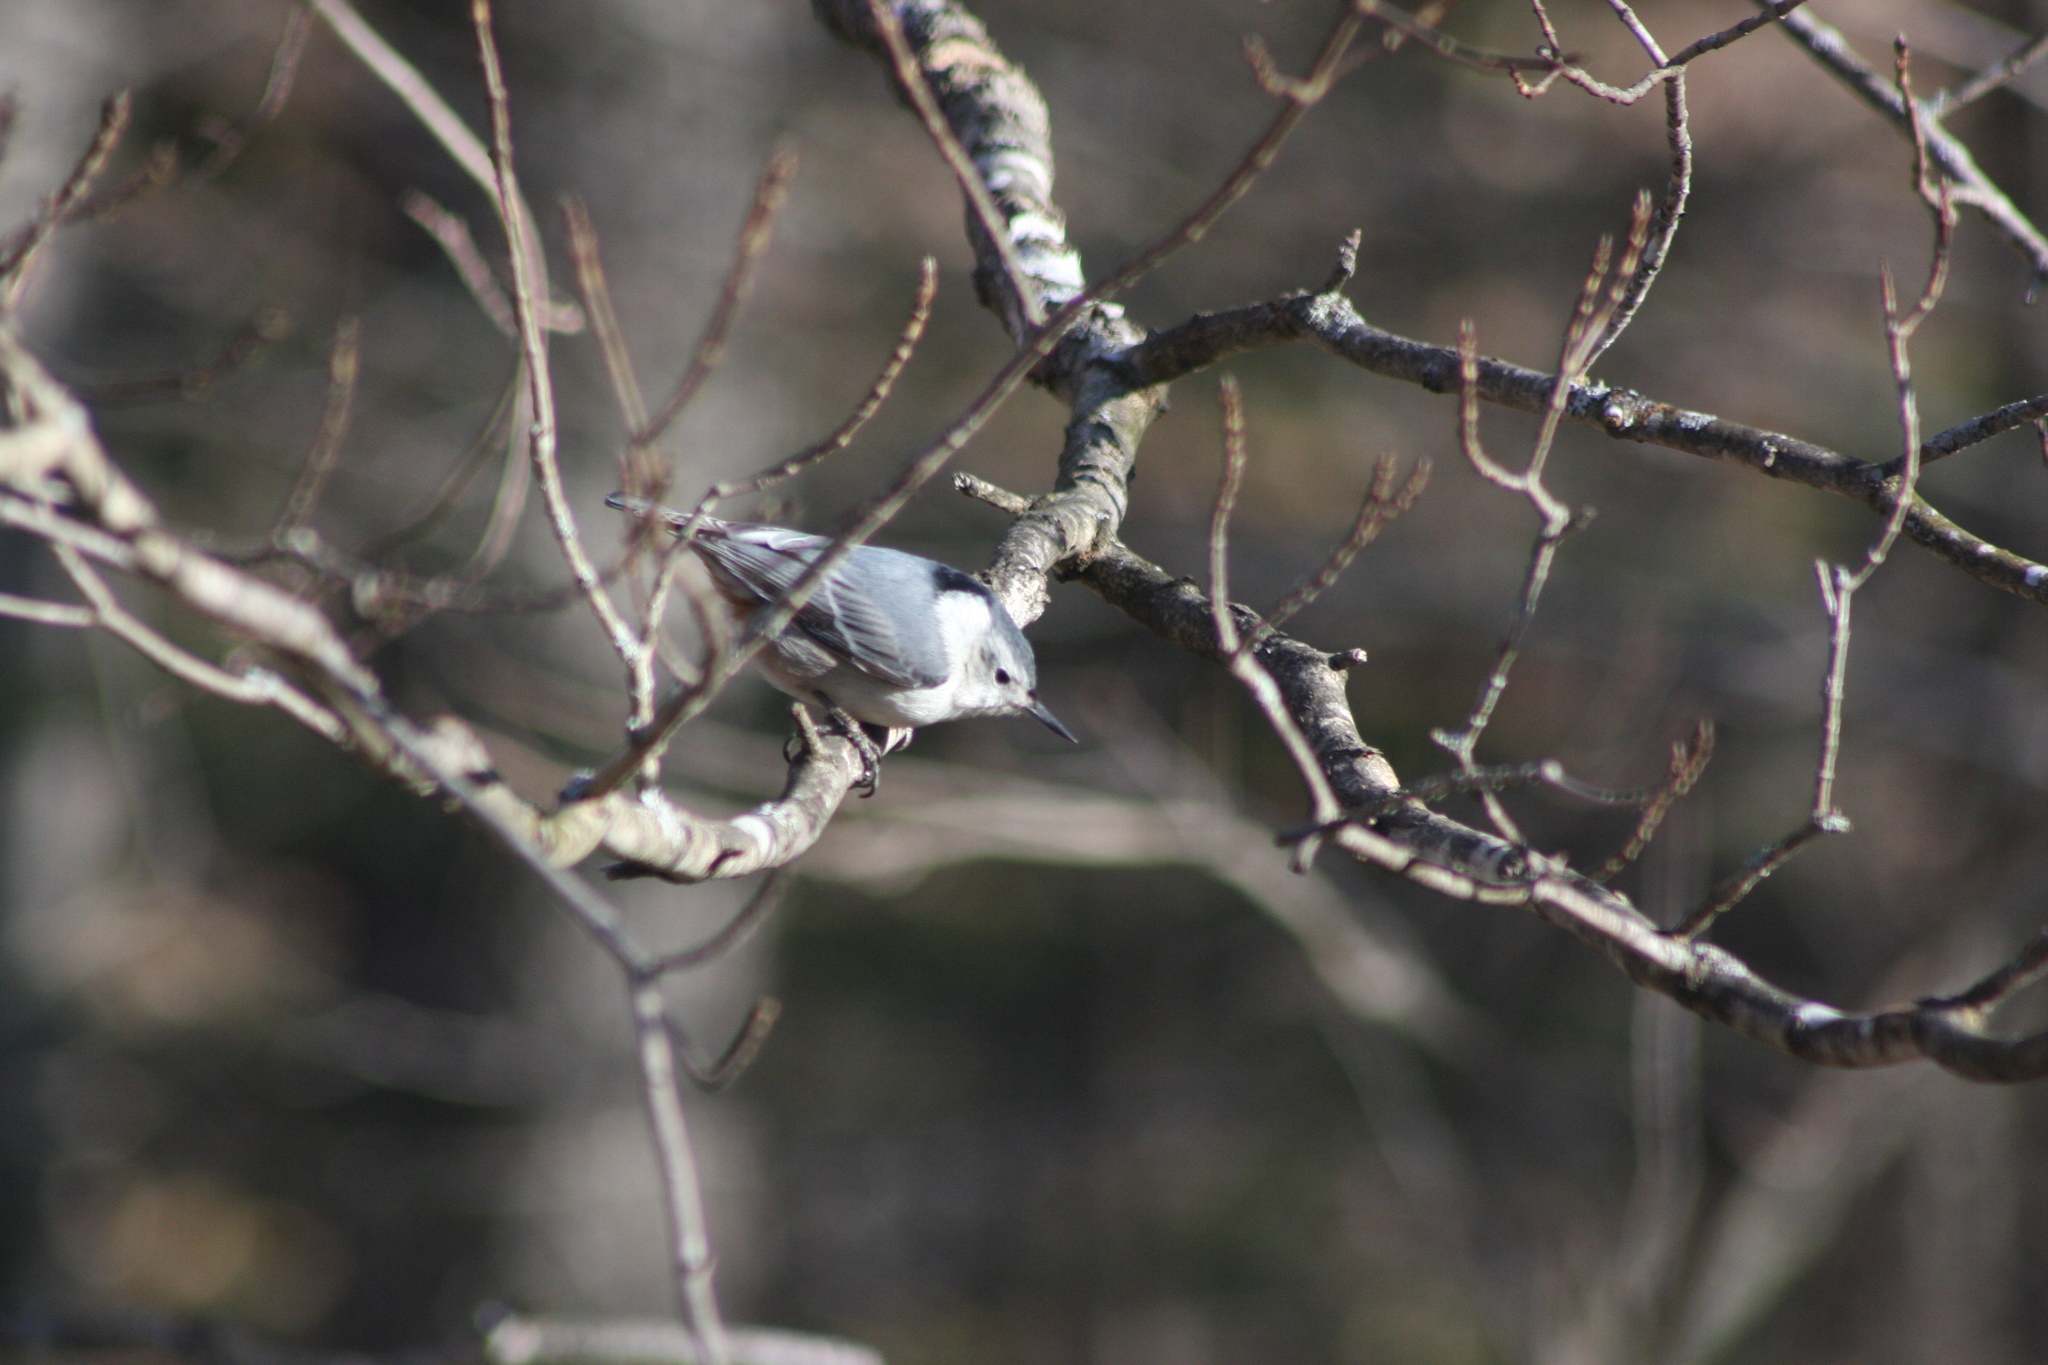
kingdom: Animalia
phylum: Chordata
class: Aves
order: Passeriformes
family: Sittidae
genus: Sitta
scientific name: Sitta carolinensis
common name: White-breasted nuthatch
